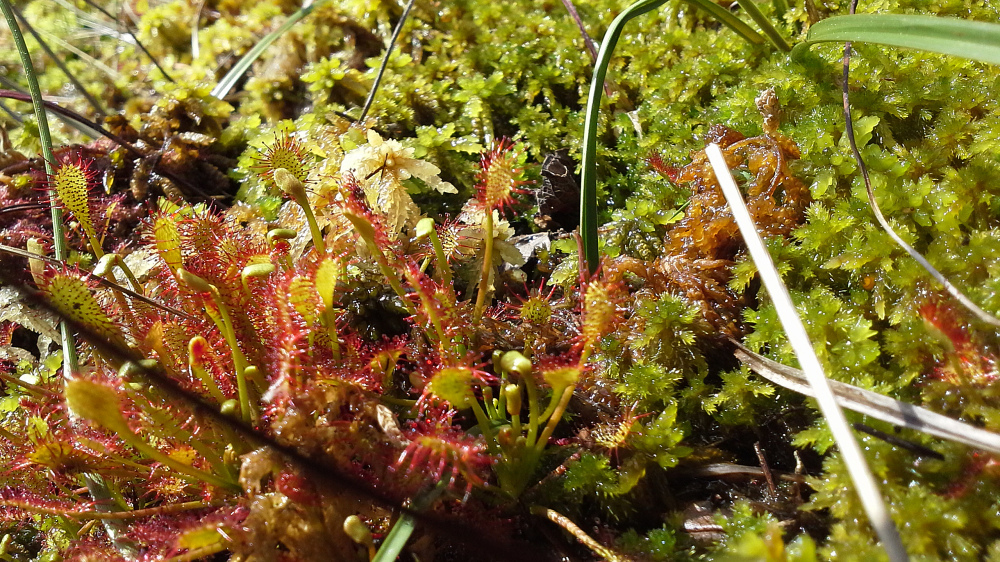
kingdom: Plantae
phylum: Tracheophyta
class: Magnoliopsida
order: Caryophyllales
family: Droseraceae
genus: Drosera
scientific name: Drosera intermedia
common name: Oblong-leaved sundew
